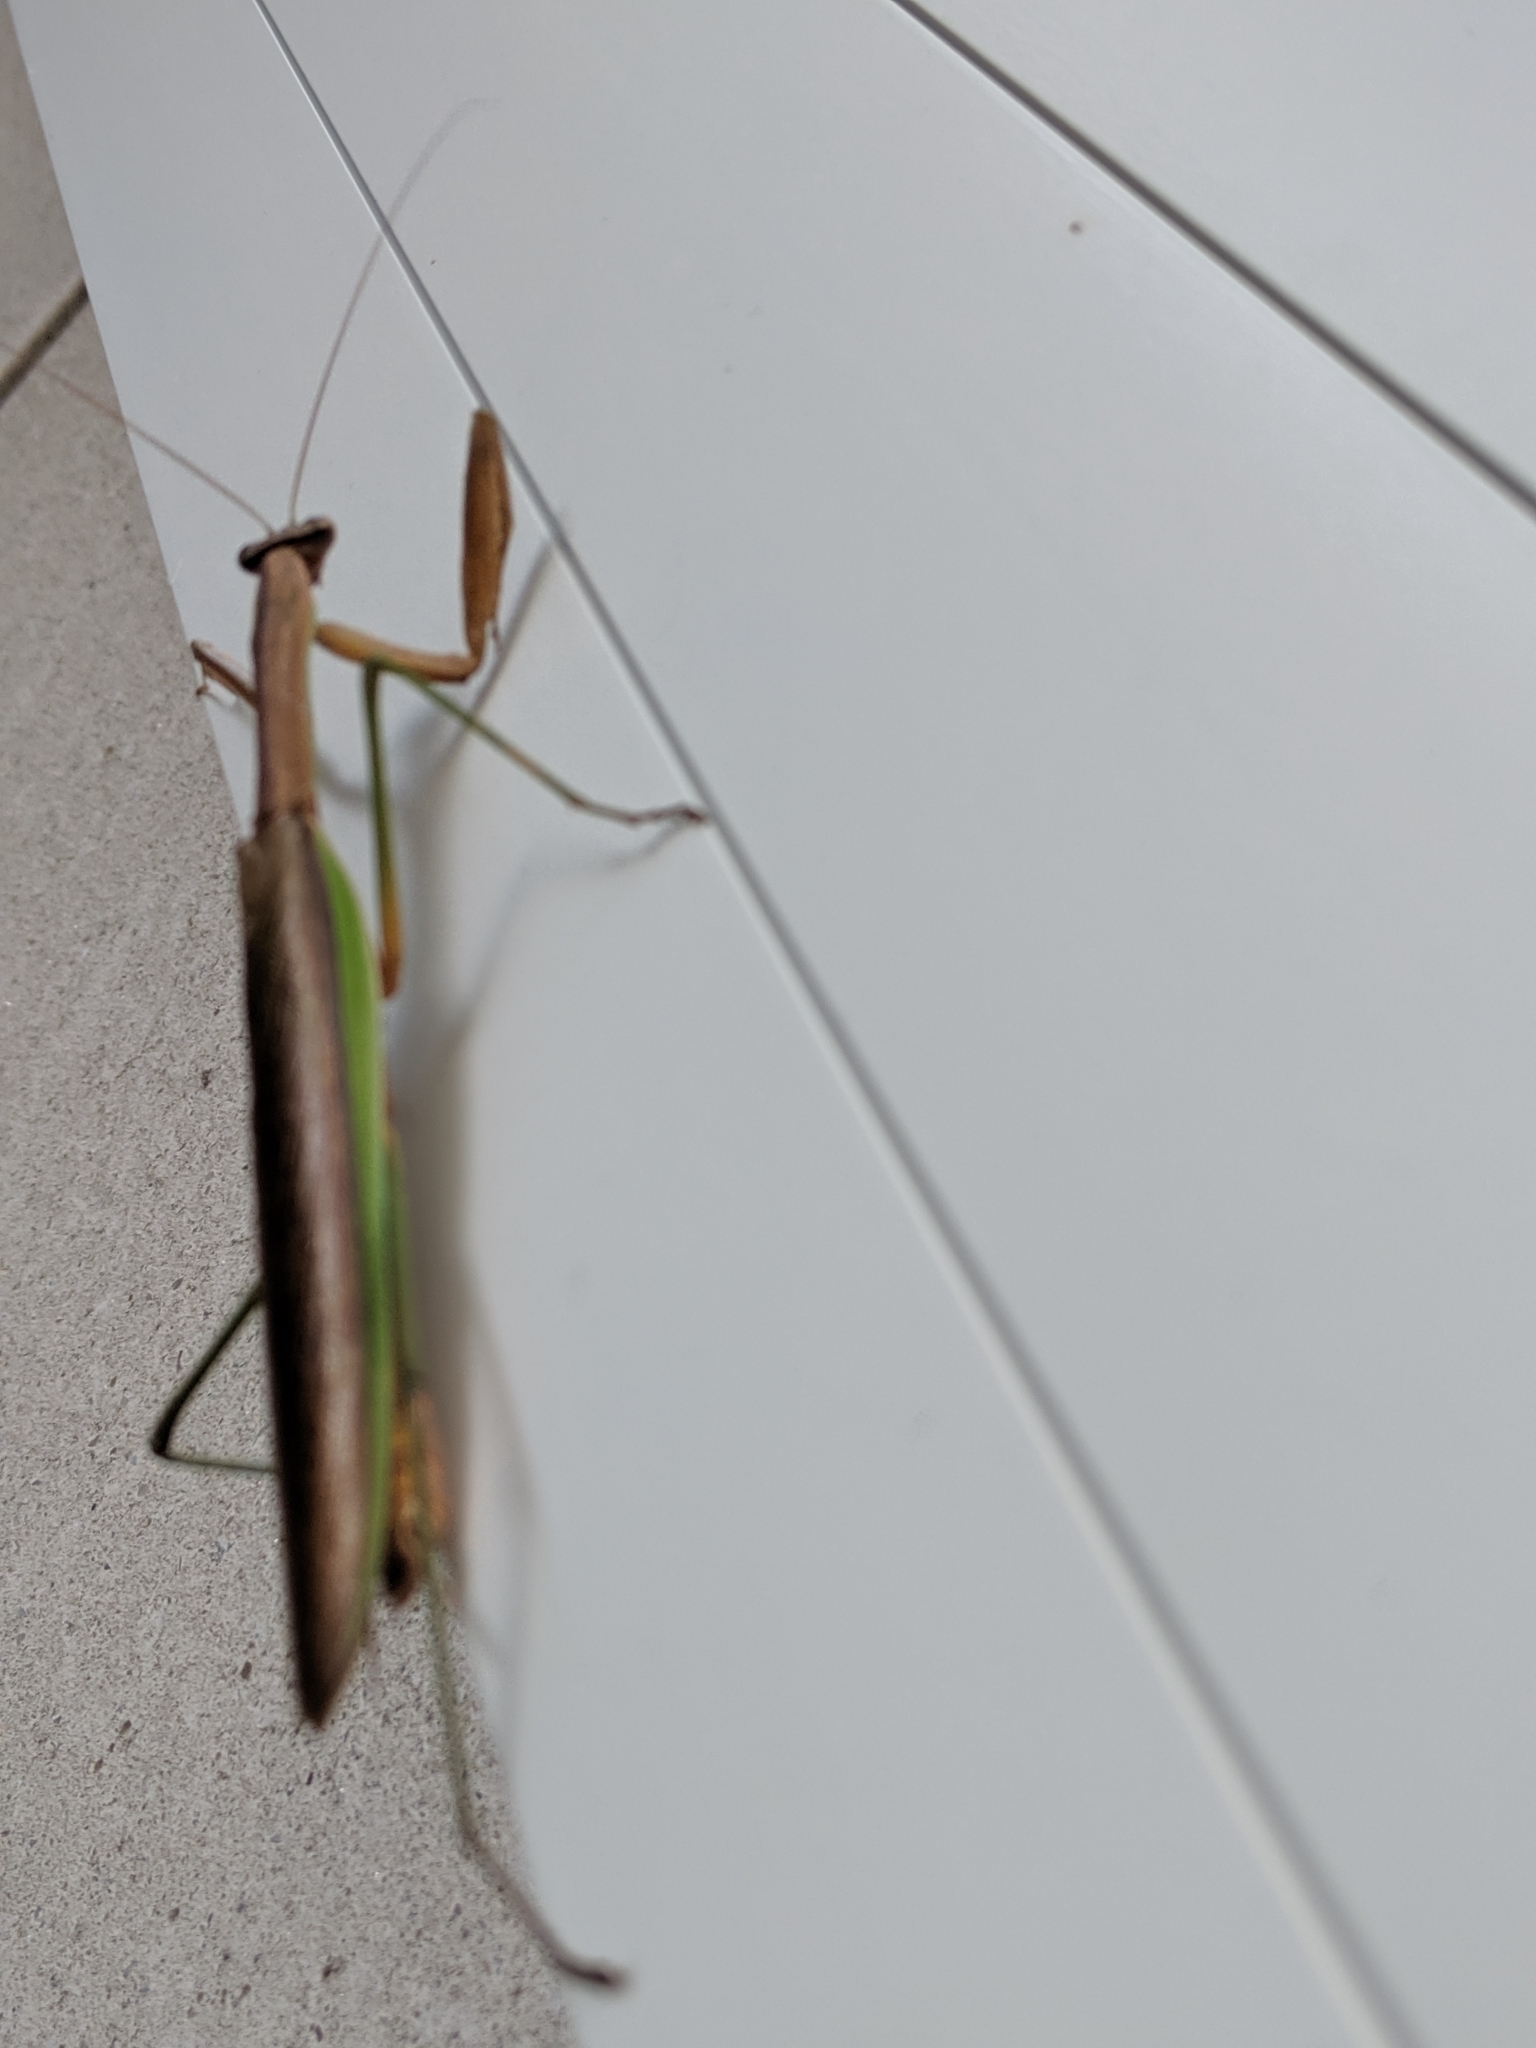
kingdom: Animalia
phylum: Arthropoda
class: Insecta
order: Mantodea
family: Mantidae
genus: Tenodera
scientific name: Tenodera sinensis
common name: Chinese mantis
